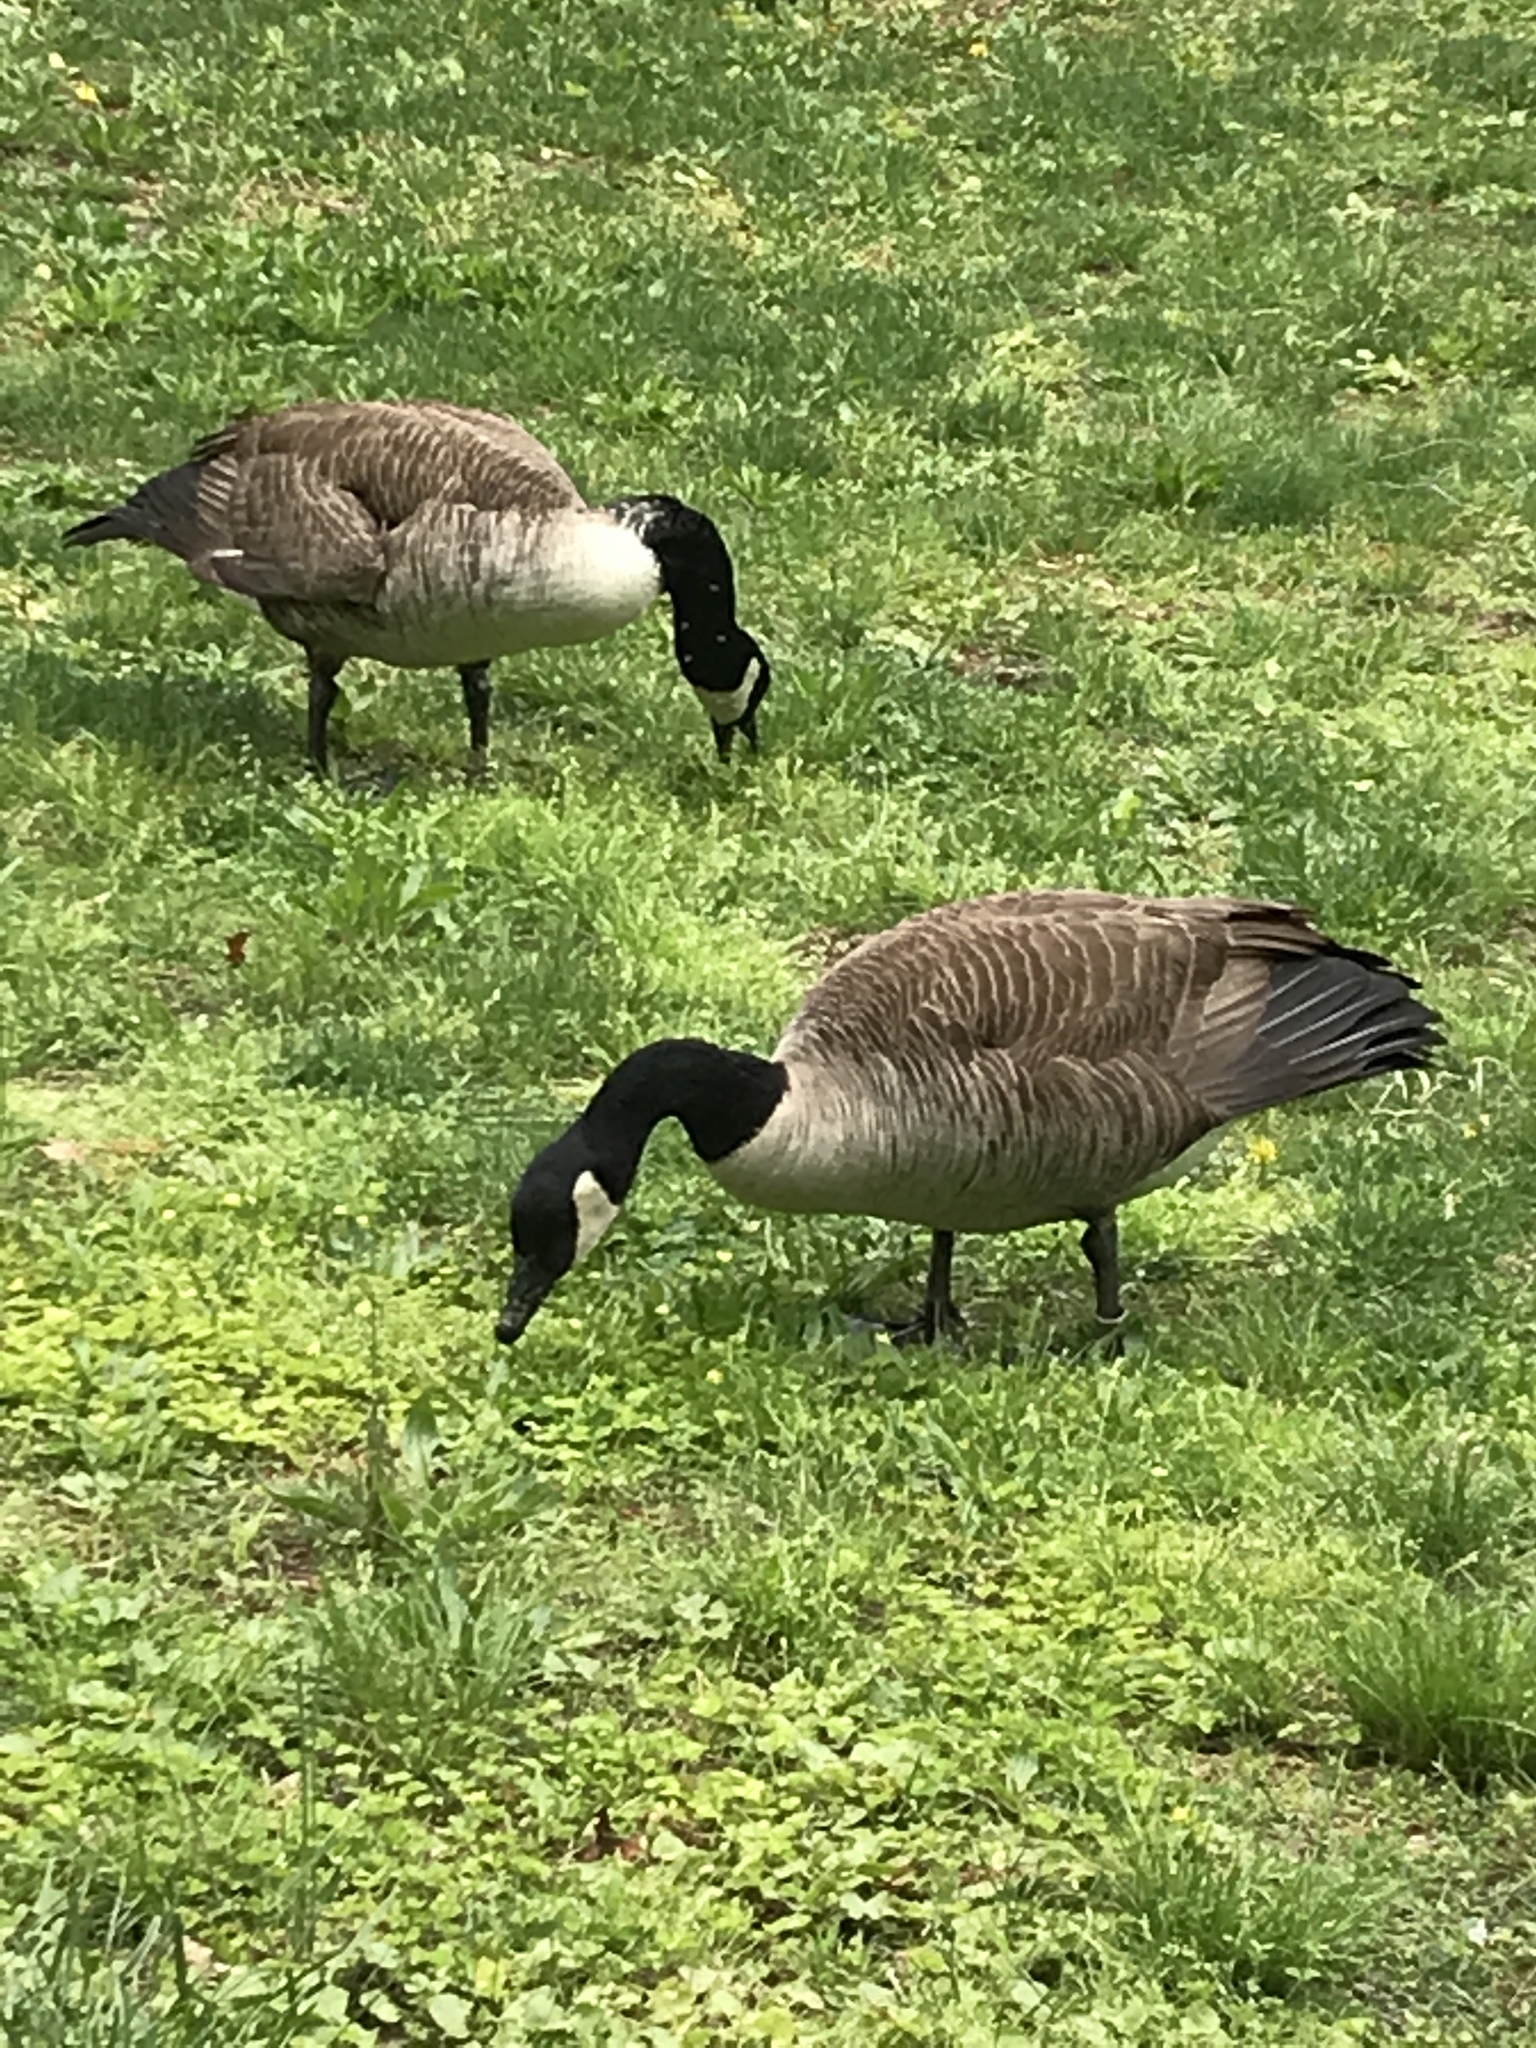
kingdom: Animalia
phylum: Chordata
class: Aves
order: Anseriformes
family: Anatidae
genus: Branta
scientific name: Branta canadensis
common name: Canada goose
